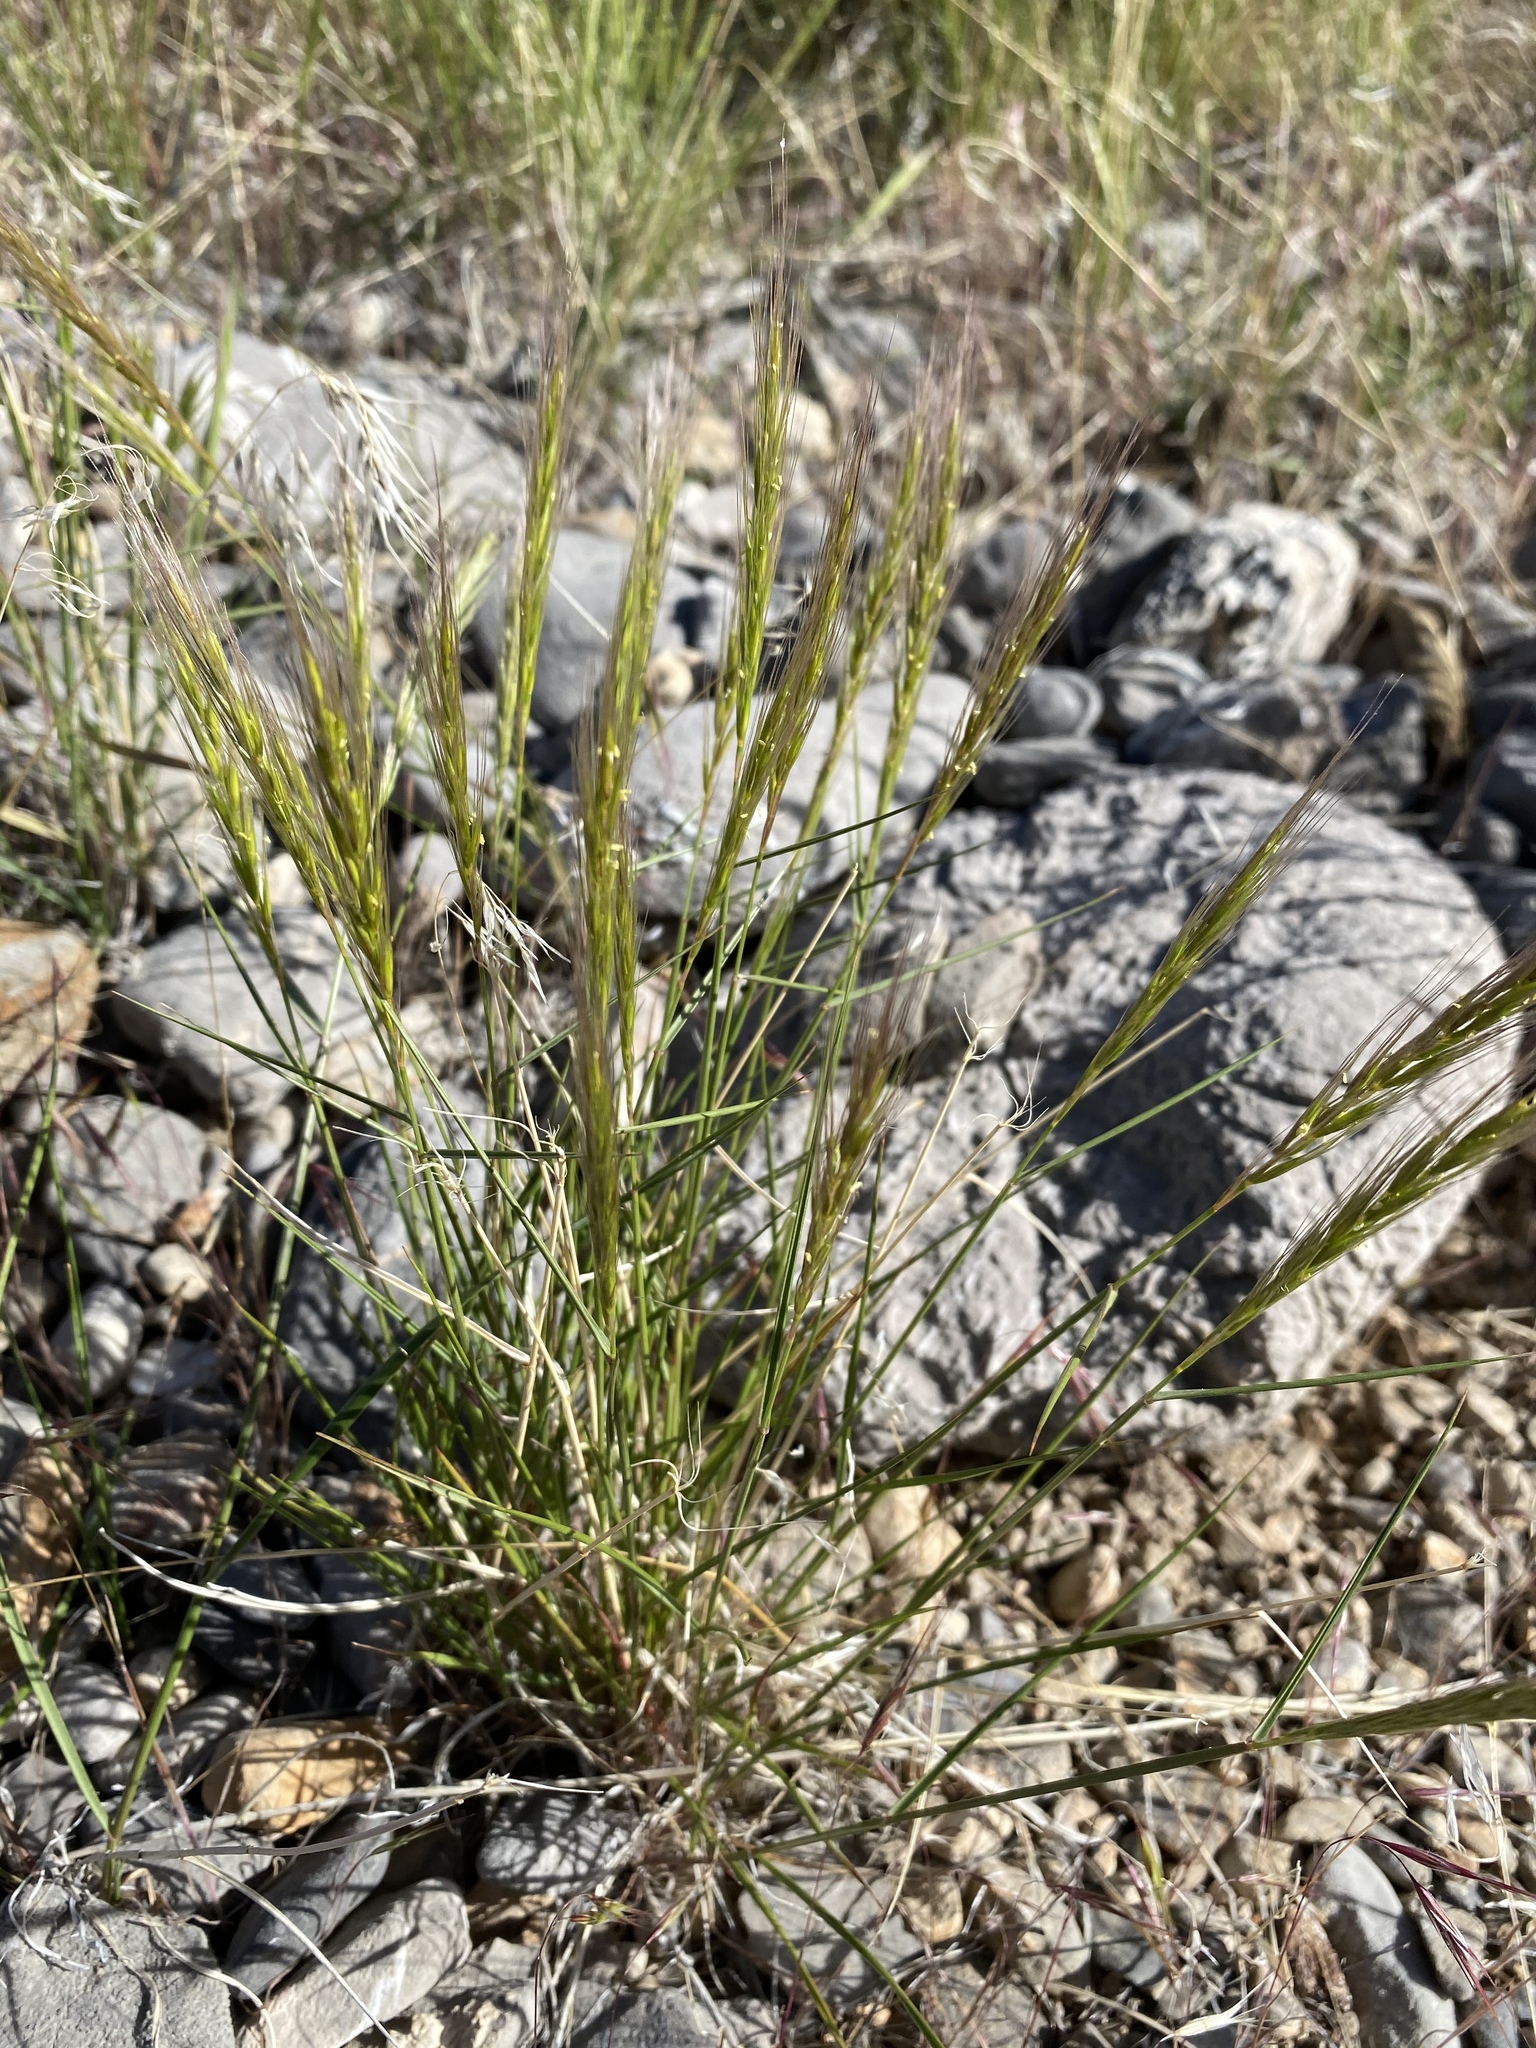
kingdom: Plantae
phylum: Tracheophyta
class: Liliopsida
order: Poales
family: Poaceae
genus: Elymus
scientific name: Elymus elymoides
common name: Bottlebrush squirreltail
